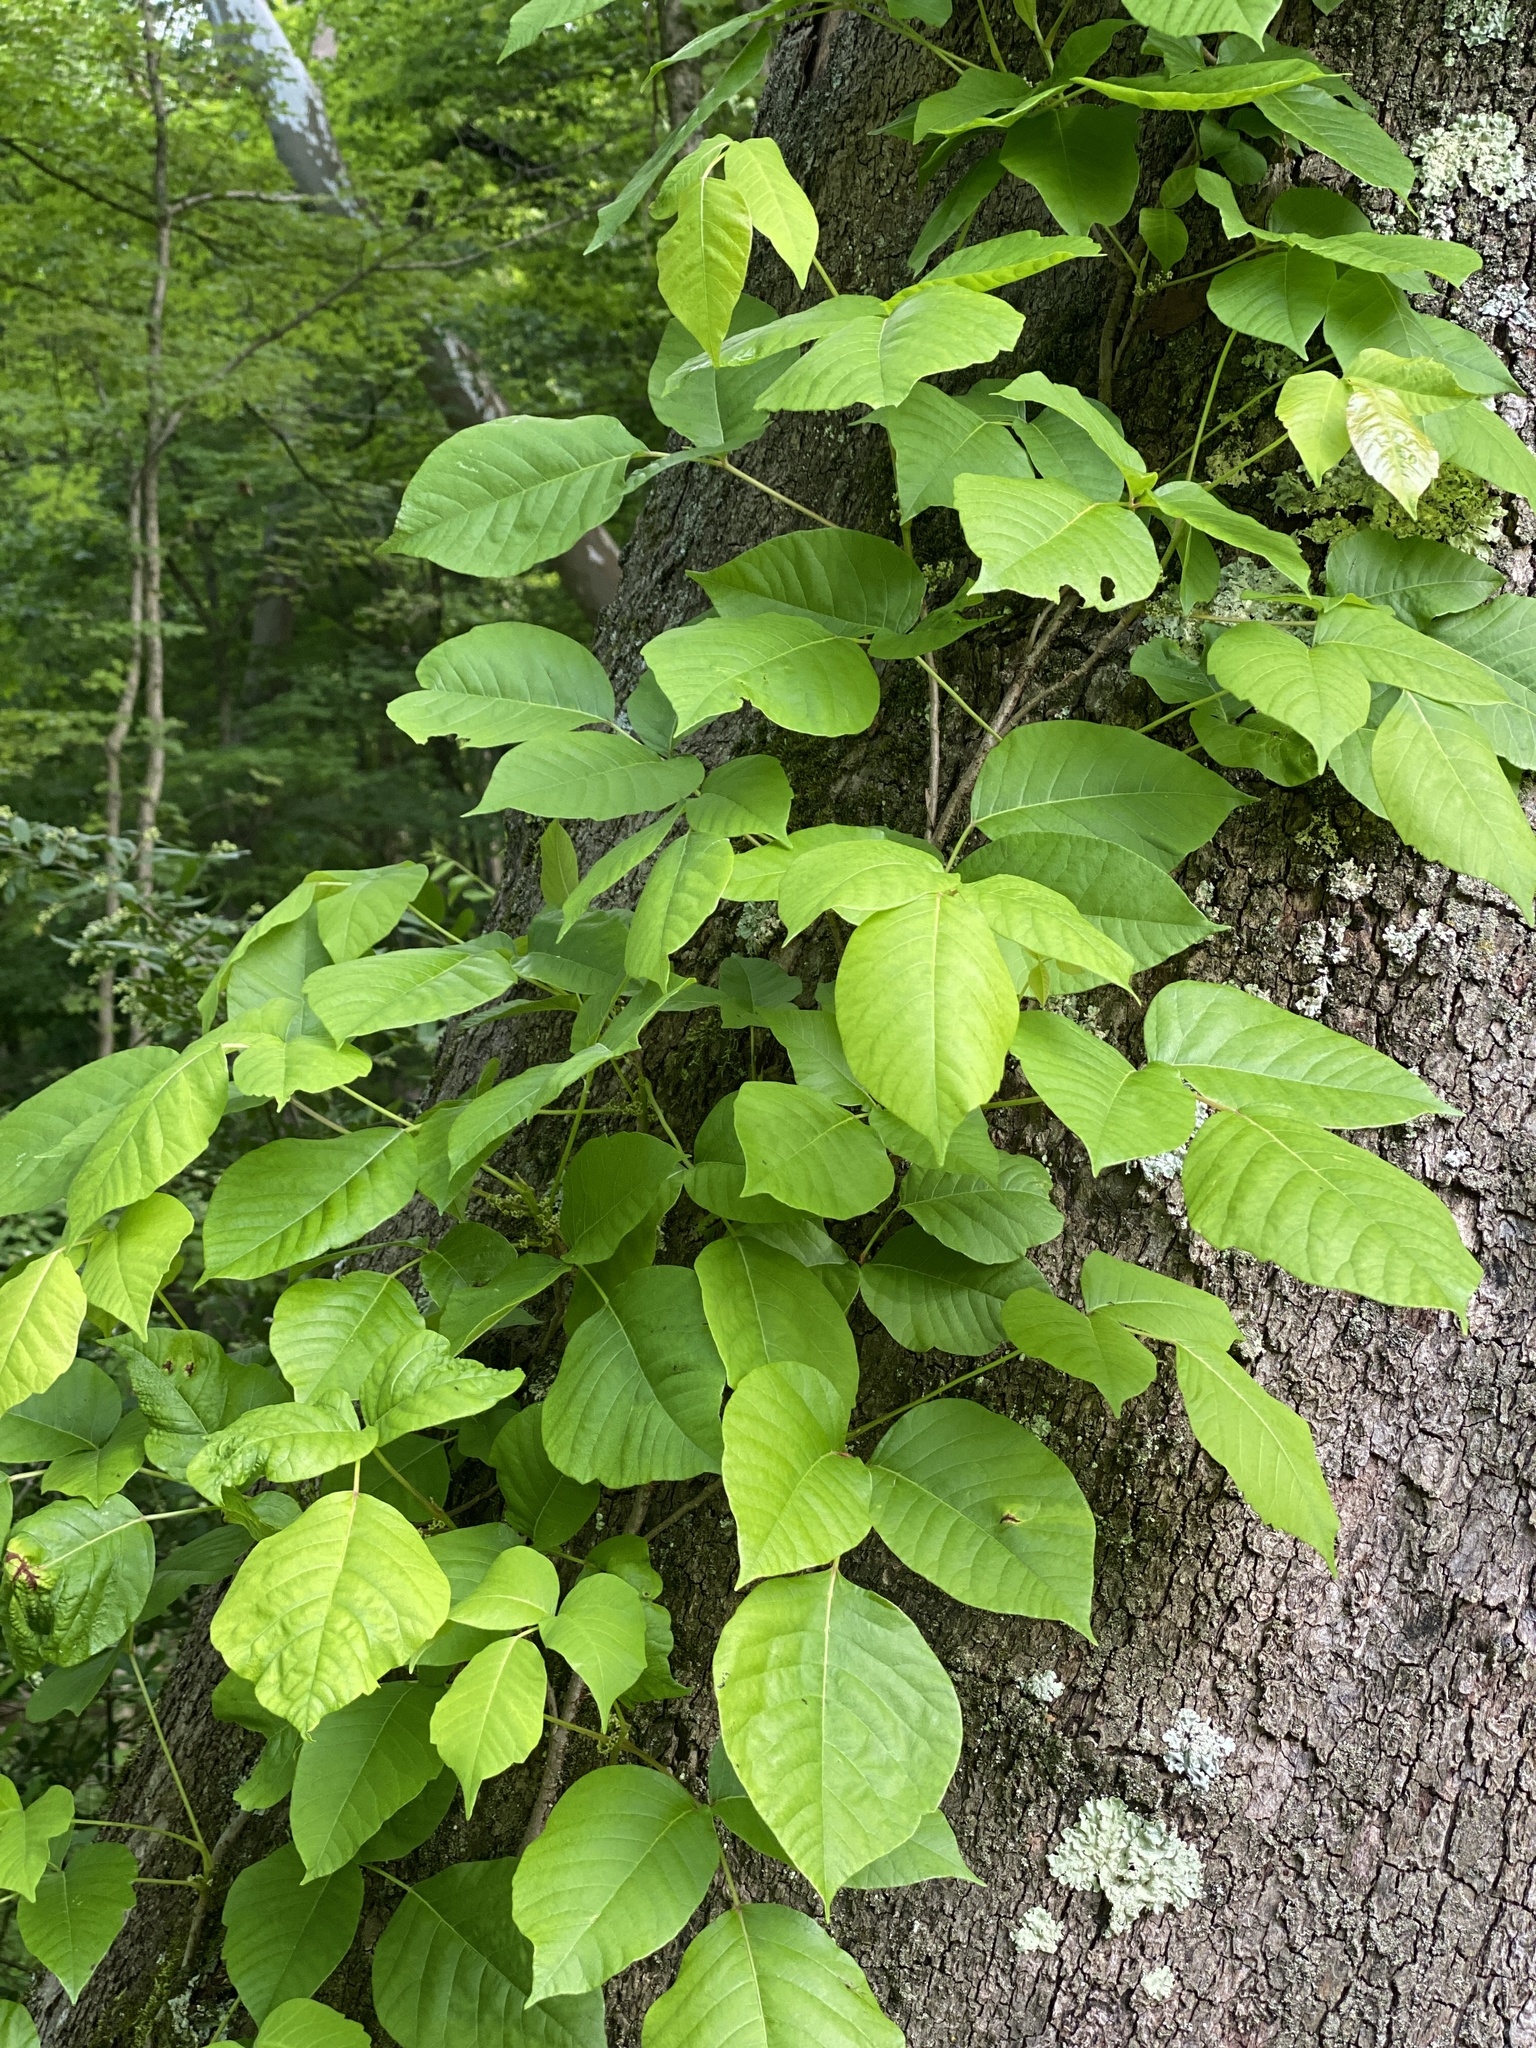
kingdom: Plantae
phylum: Tracheophyta
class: Magnoliopsida
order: Sapindales
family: Anacardiaceae
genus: Toxicodendron
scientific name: Toxicodendron radicans
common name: Poison ivy
